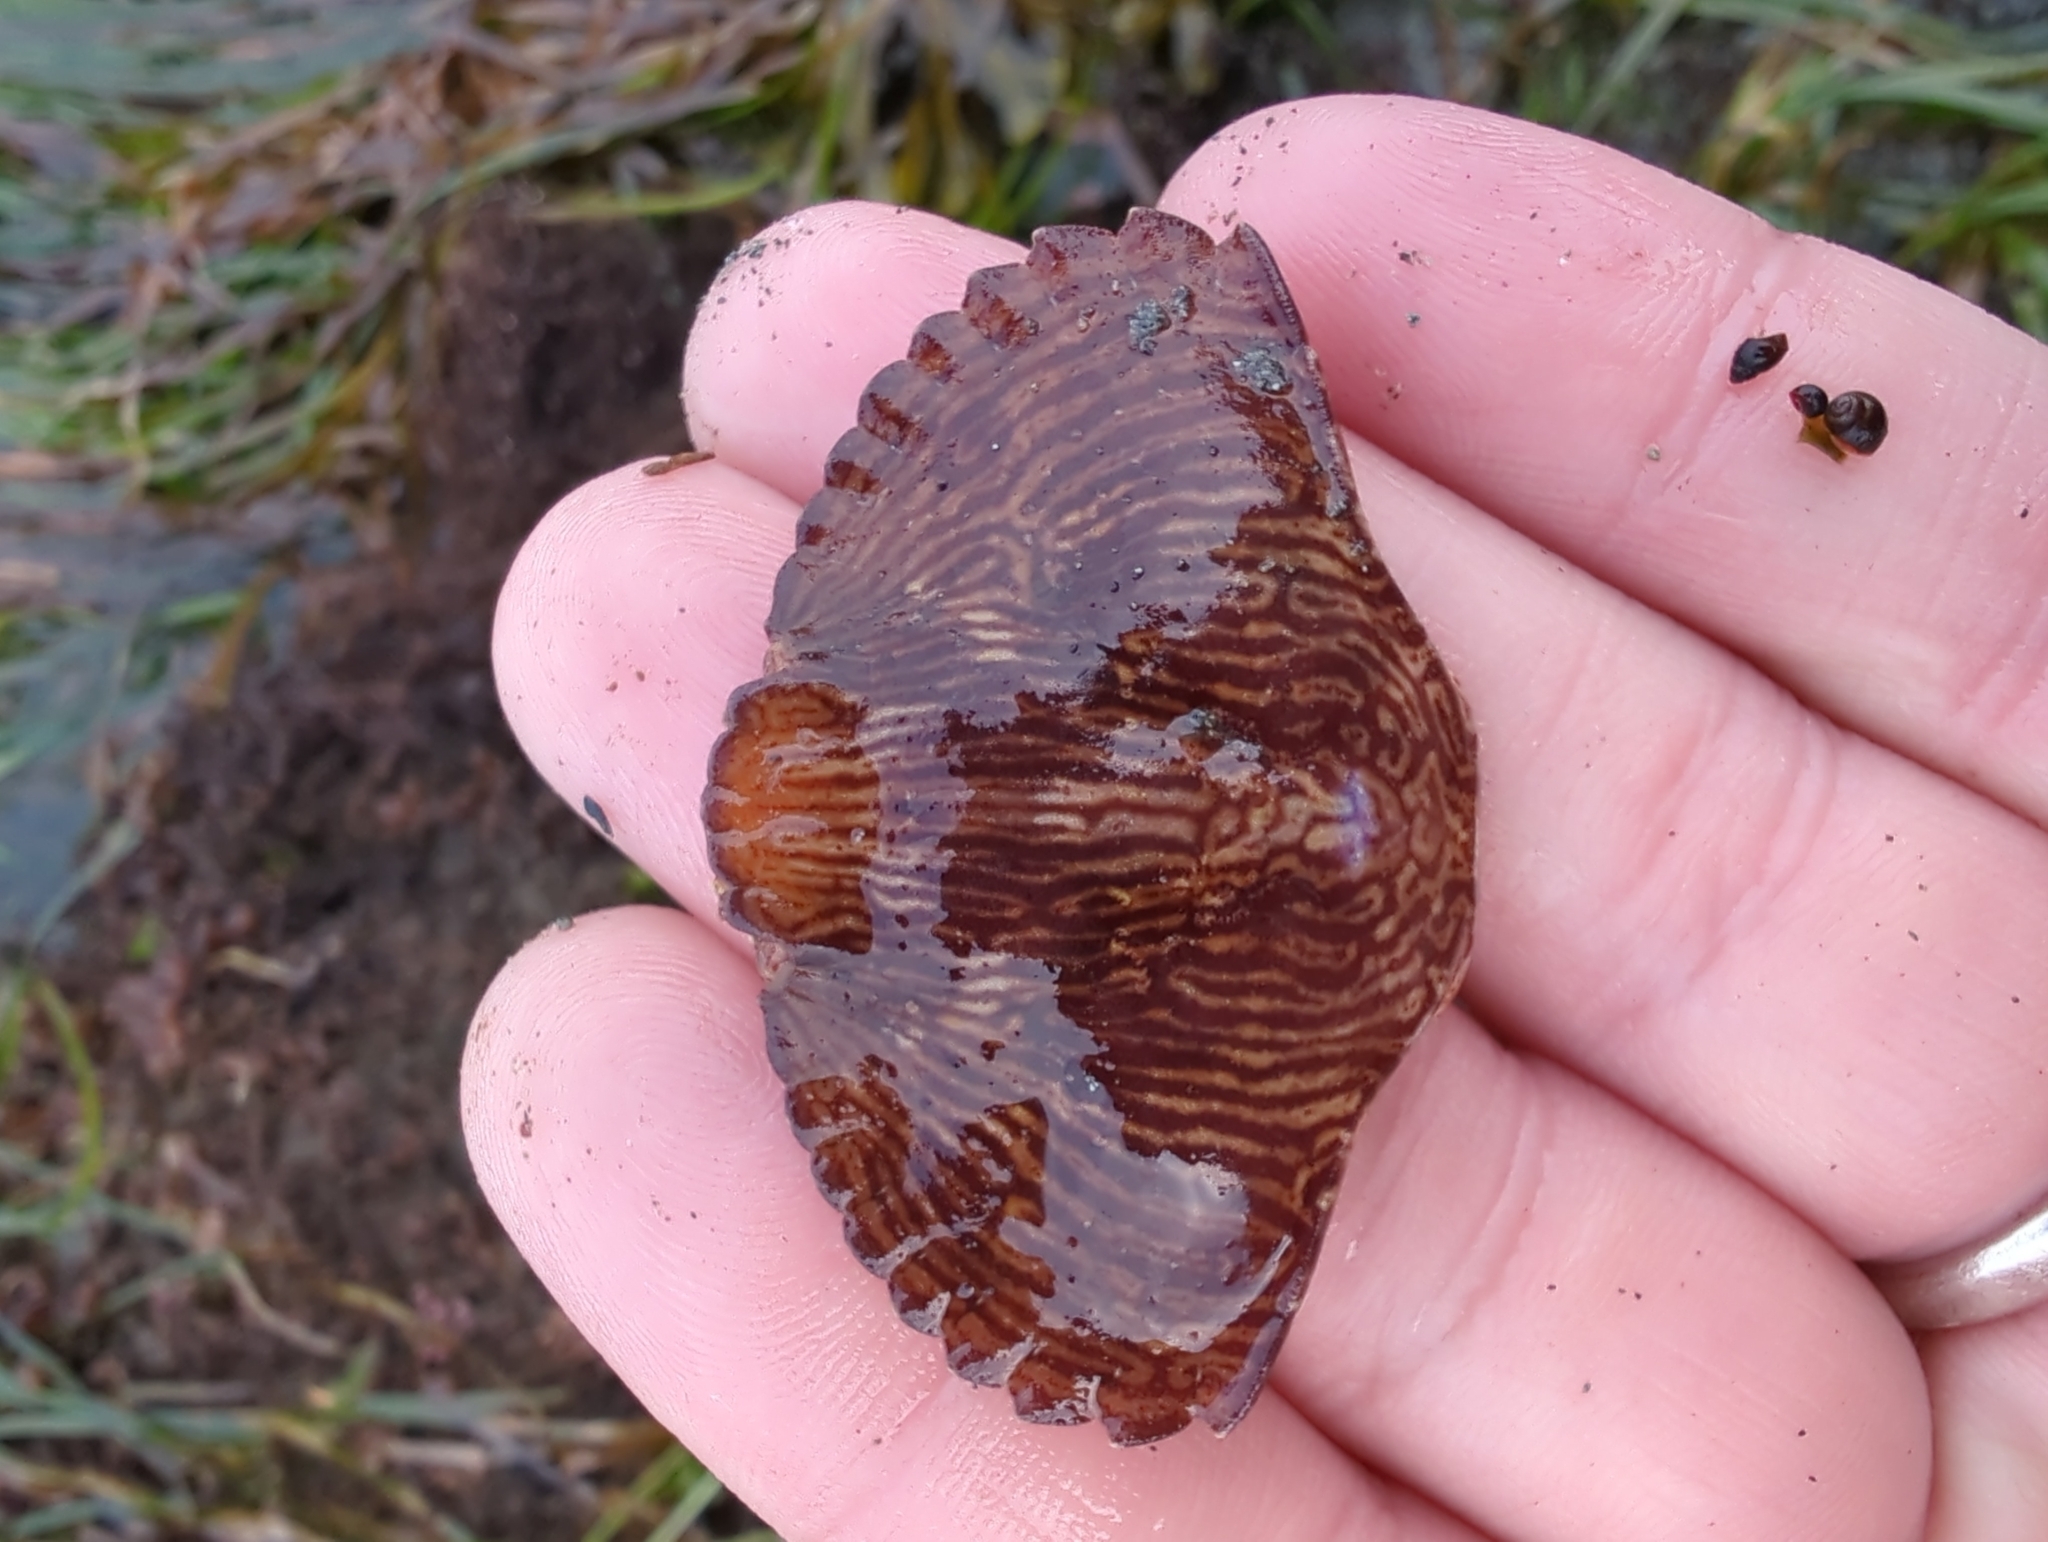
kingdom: Animalia
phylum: Arthropoda
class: Malacostraca
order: Decapoda
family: Cancridae
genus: Cancer
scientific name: Cancer productus
